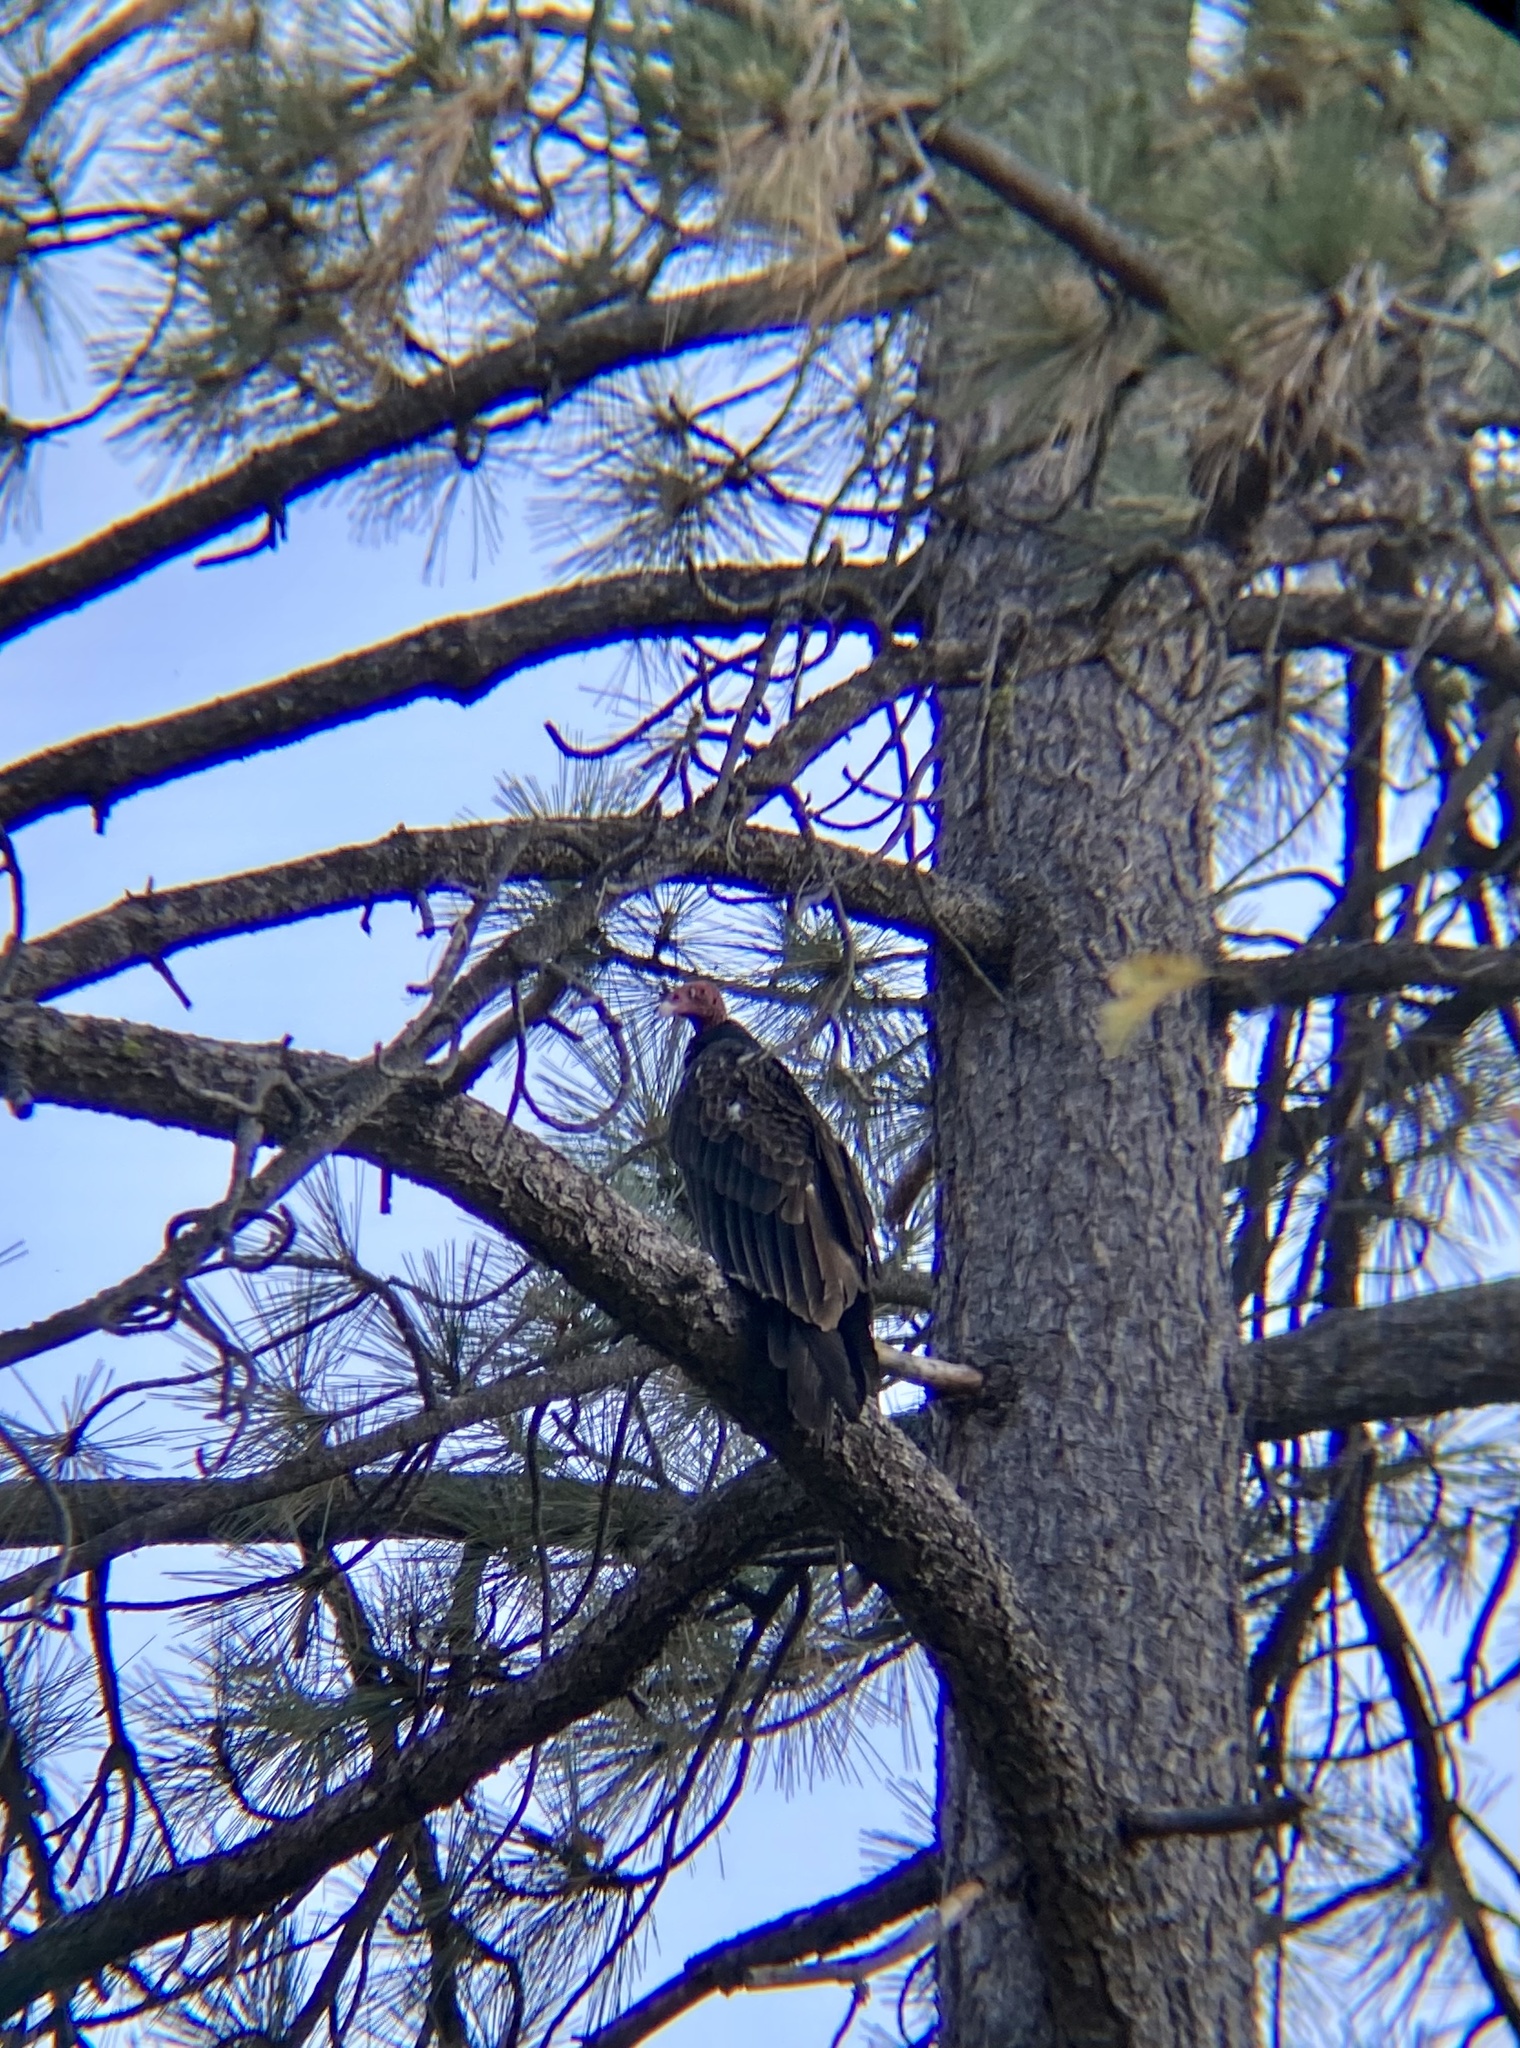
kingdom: Animalia
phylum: Chordata
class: Aves
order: Accipitriformes
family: Cathartidae
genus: Cathartes
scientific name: Cathartes aura
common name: Turkey vulture
